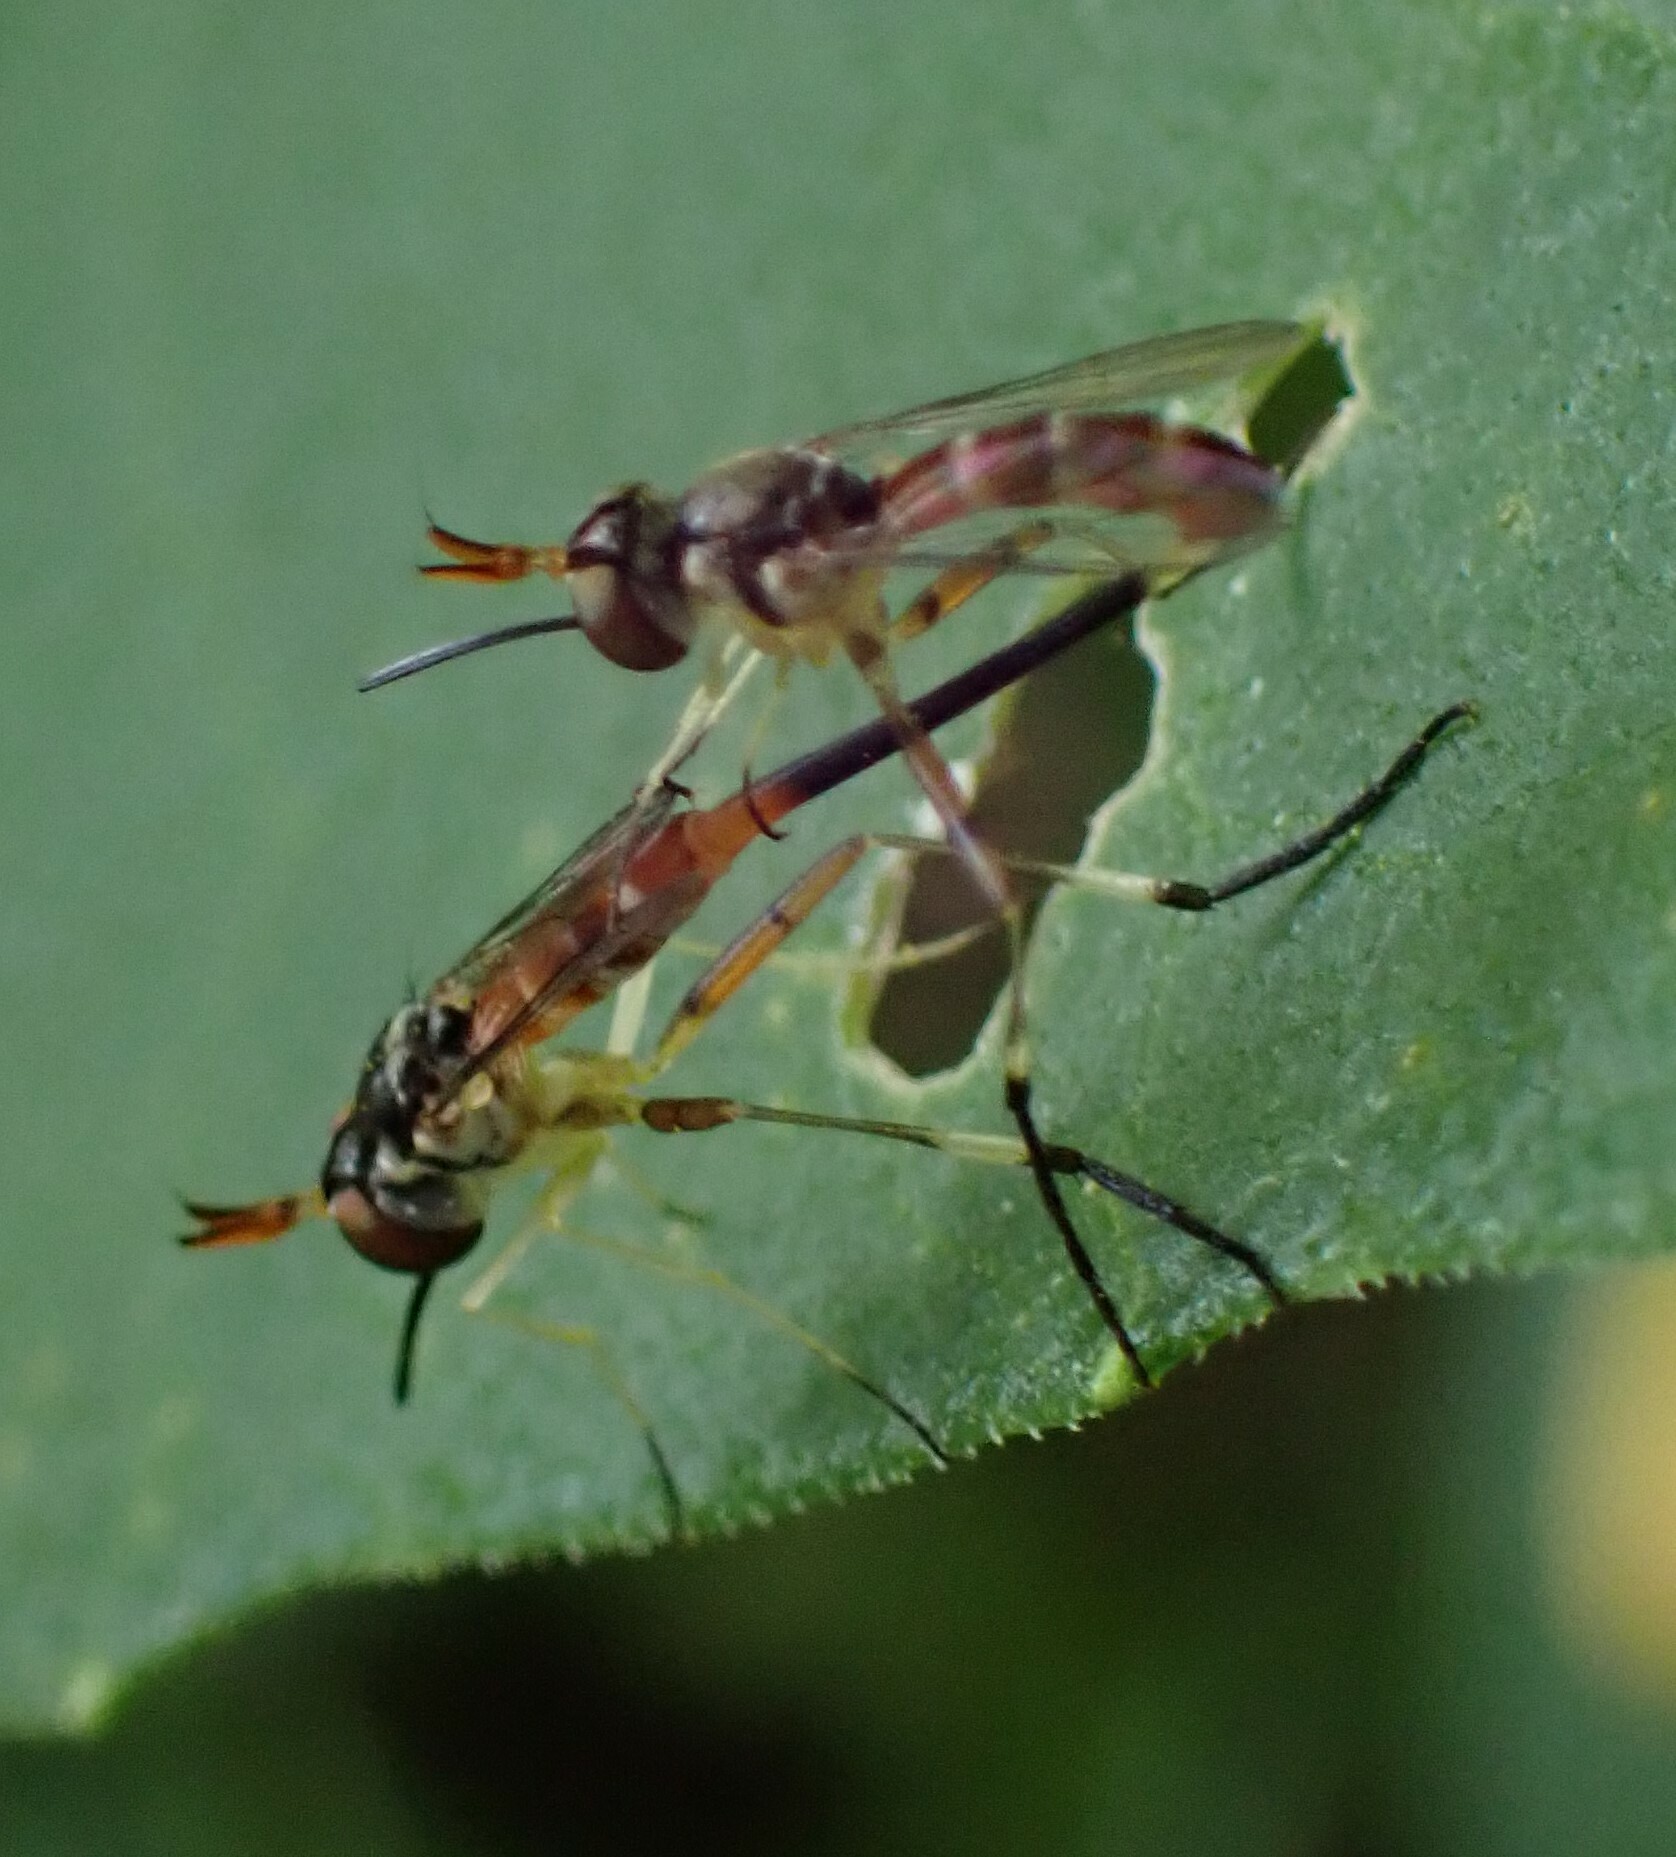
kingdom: Animalia
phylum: Arthropoda
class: Insecta
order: Diptera
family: Conopidae
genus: Stylogaster
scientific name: Stylogaster neglecta
